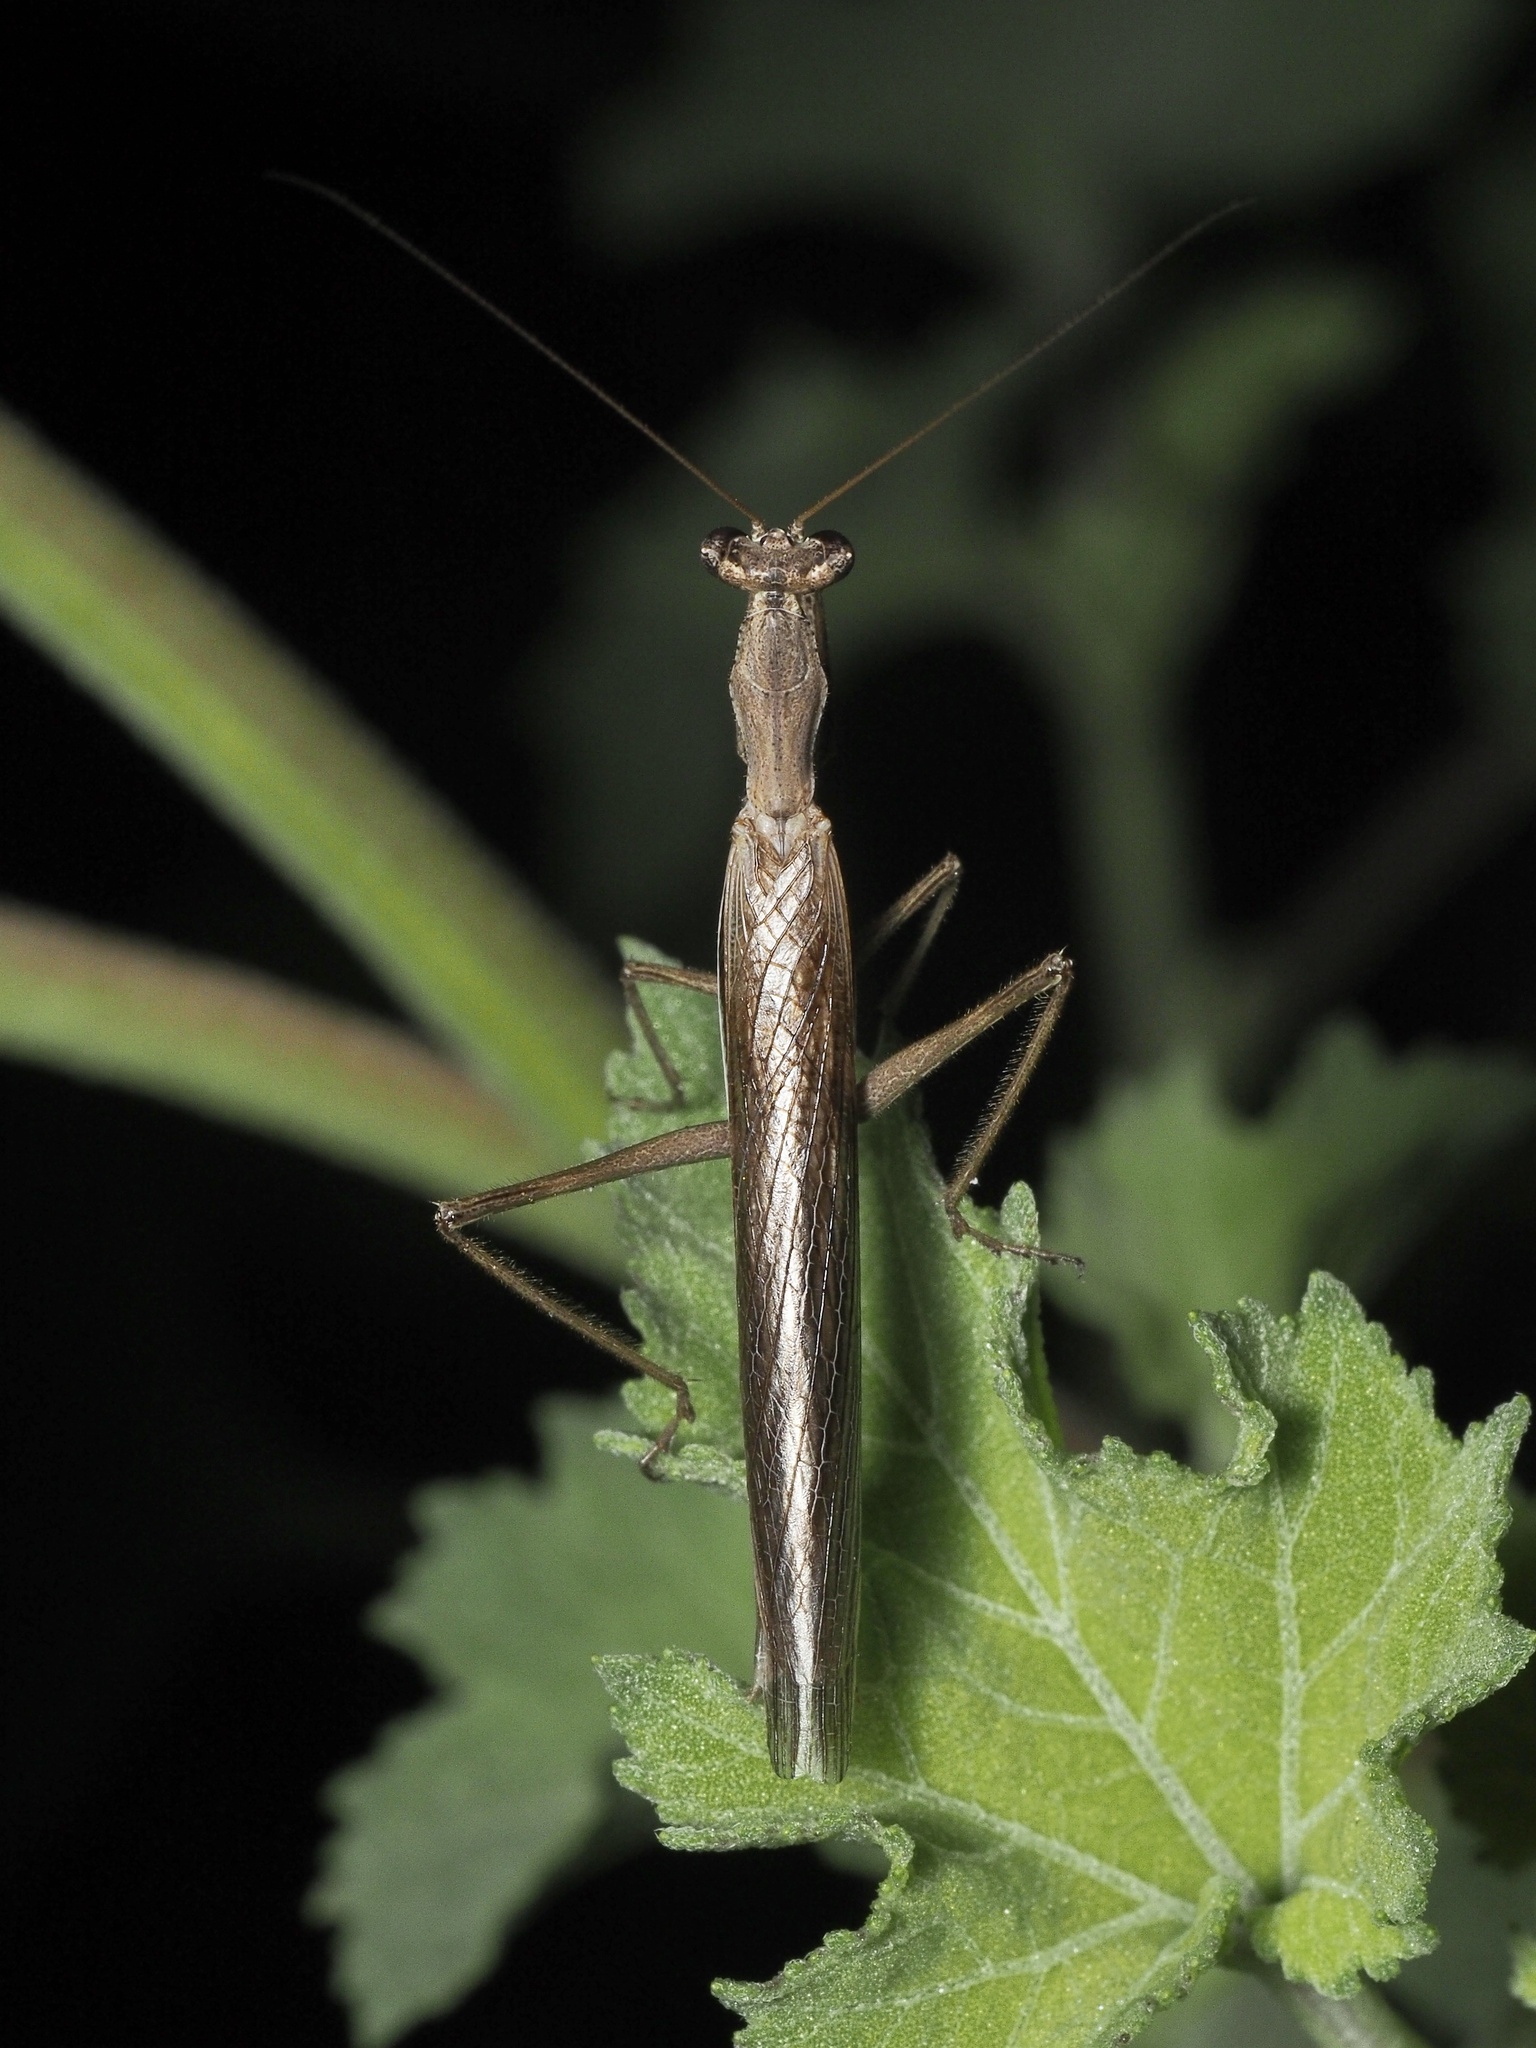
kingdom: Animalia
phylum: Arthropoda
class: Insecta
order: Mantodea
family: Amelidae
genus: Ameles
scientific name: Ameles heldreichi
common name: Heldreich's dwarf mantis
